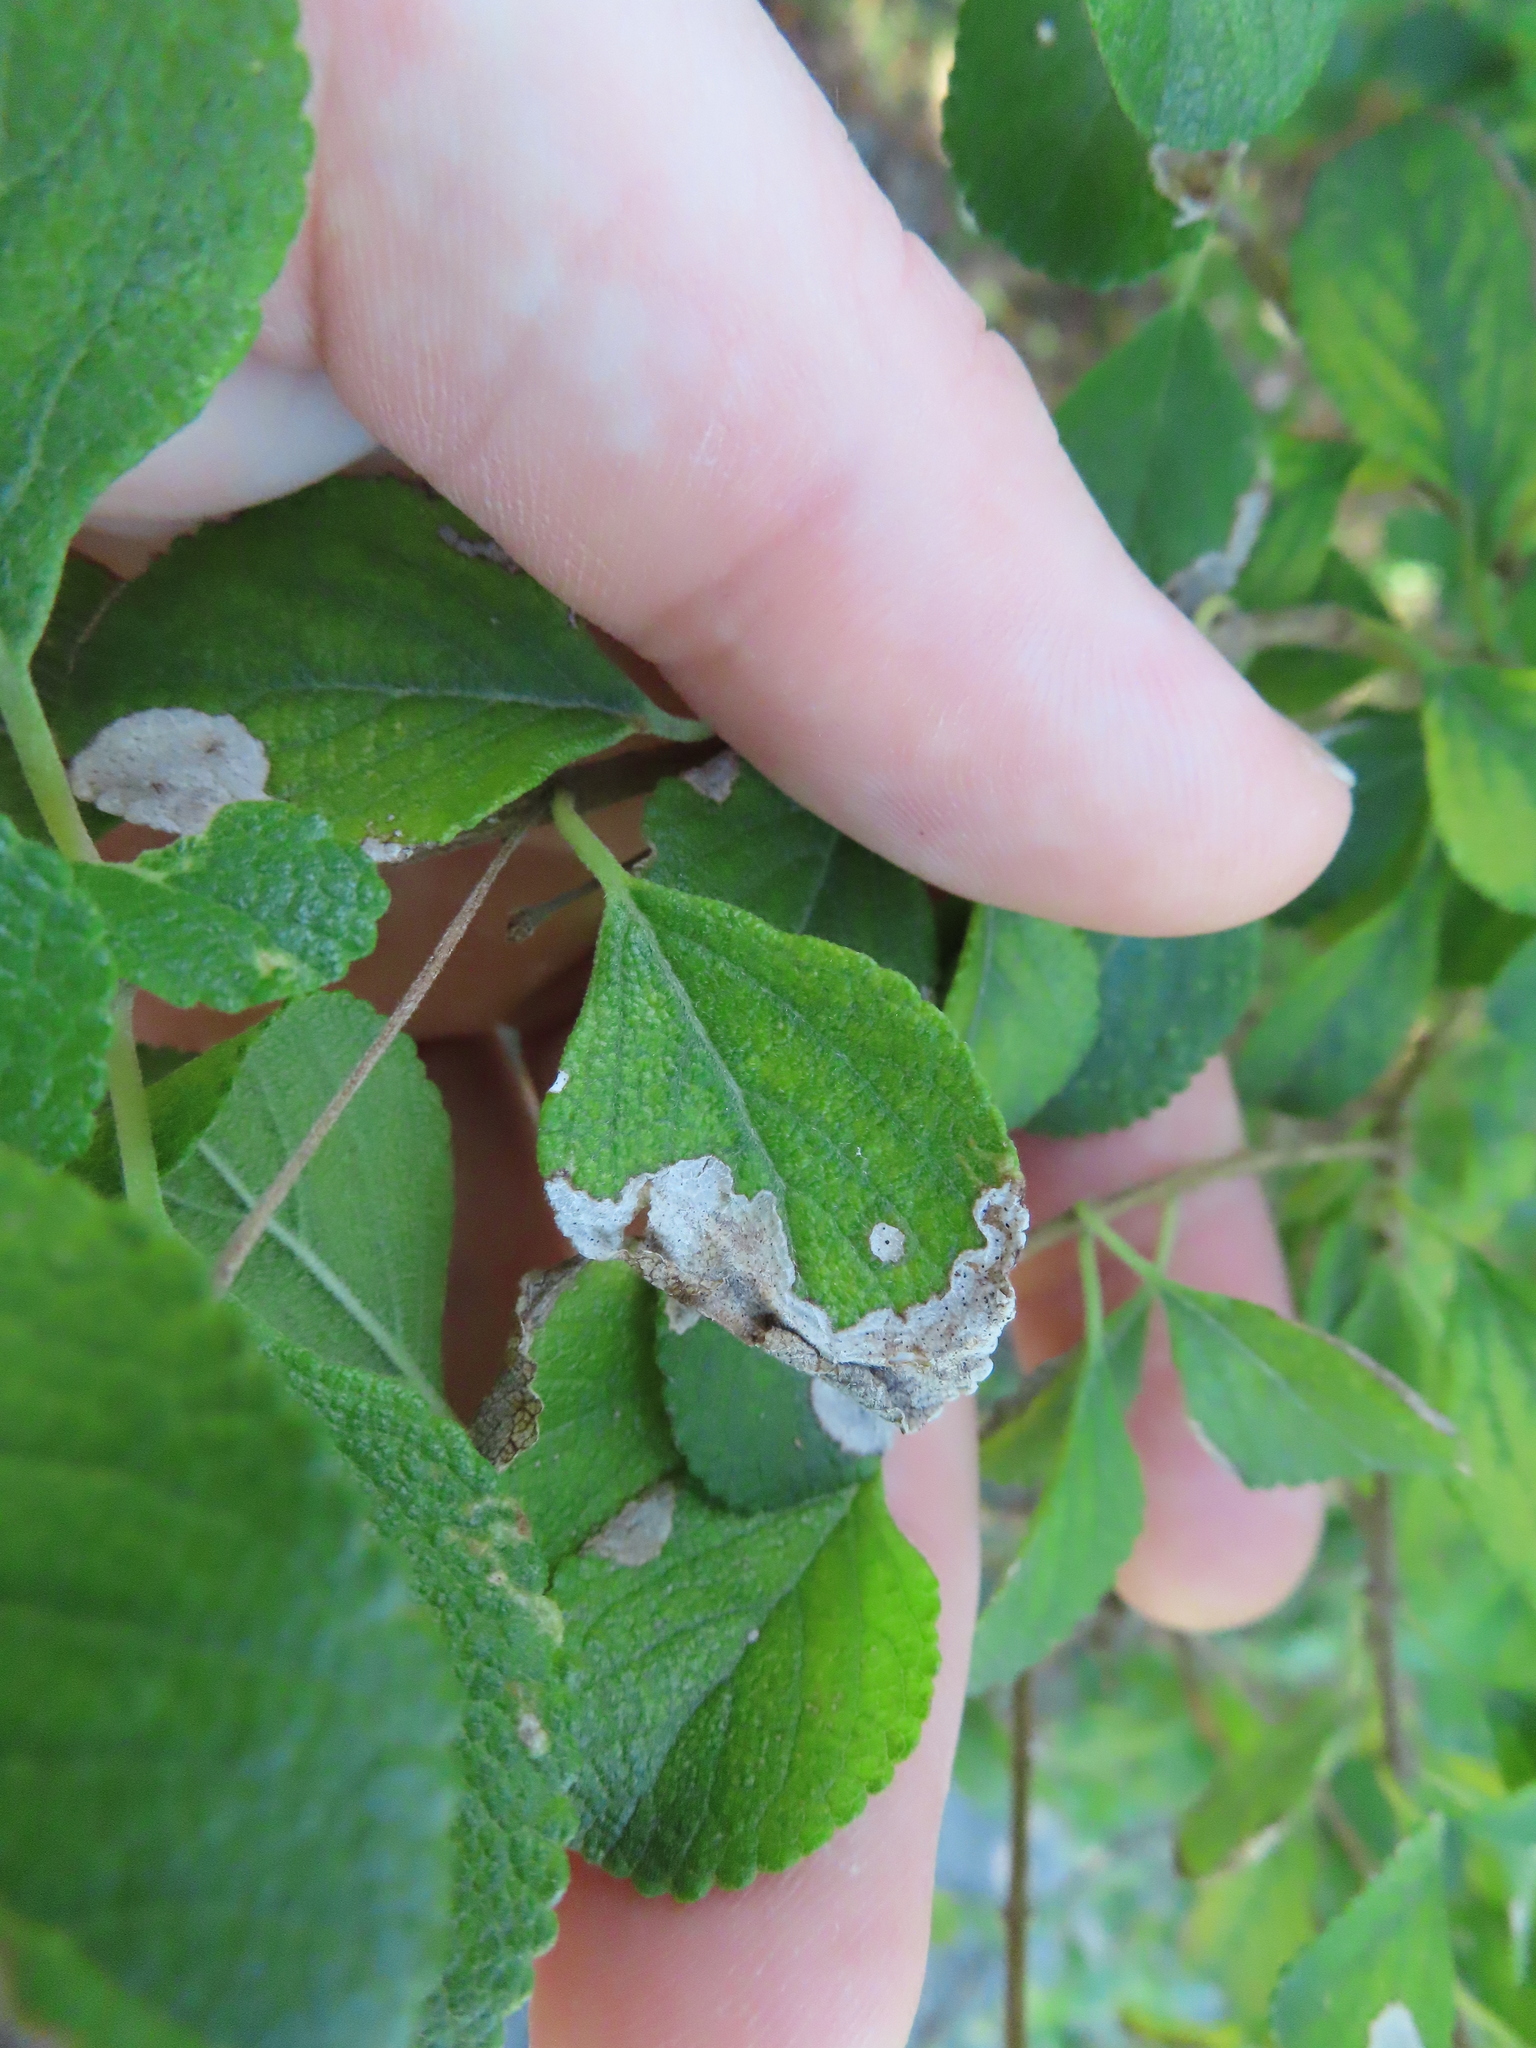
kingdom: Animalia
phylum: Arthropoda
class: Insecta
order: Diptera
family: Agromyzidae
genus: Calycomyza
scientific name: Calycomyza lantanae
